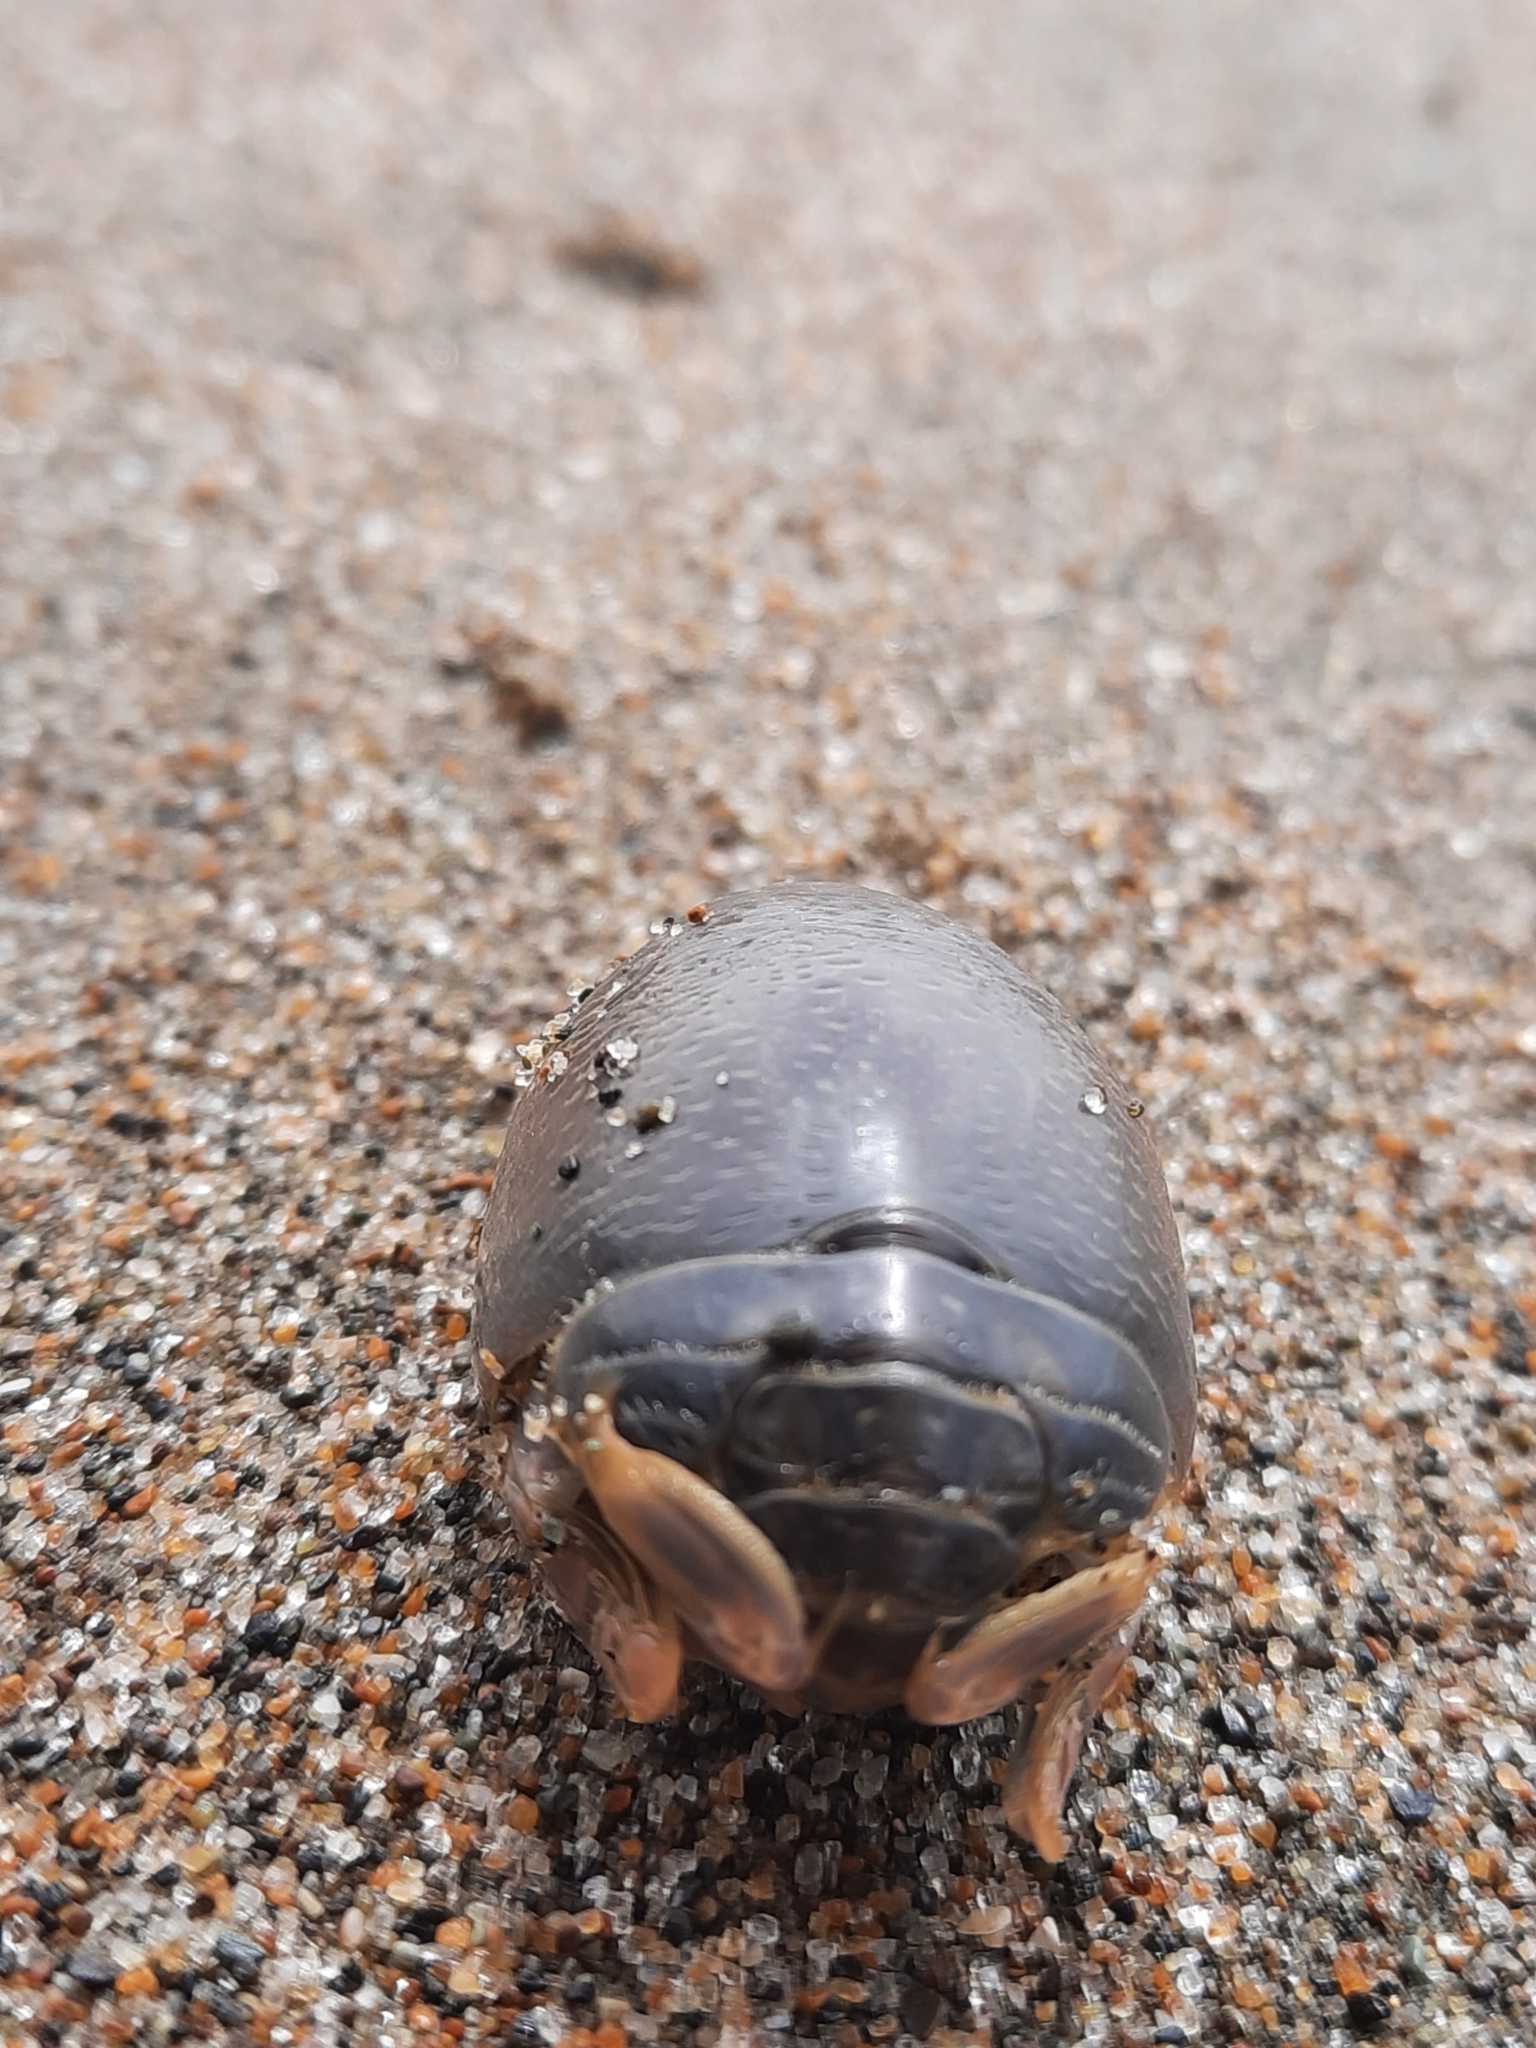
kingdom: Animalia
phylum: Arthropoda
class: Malacostraca
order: Decapoda
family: Hippidae
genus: Emerita
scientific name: Emerita analoga
